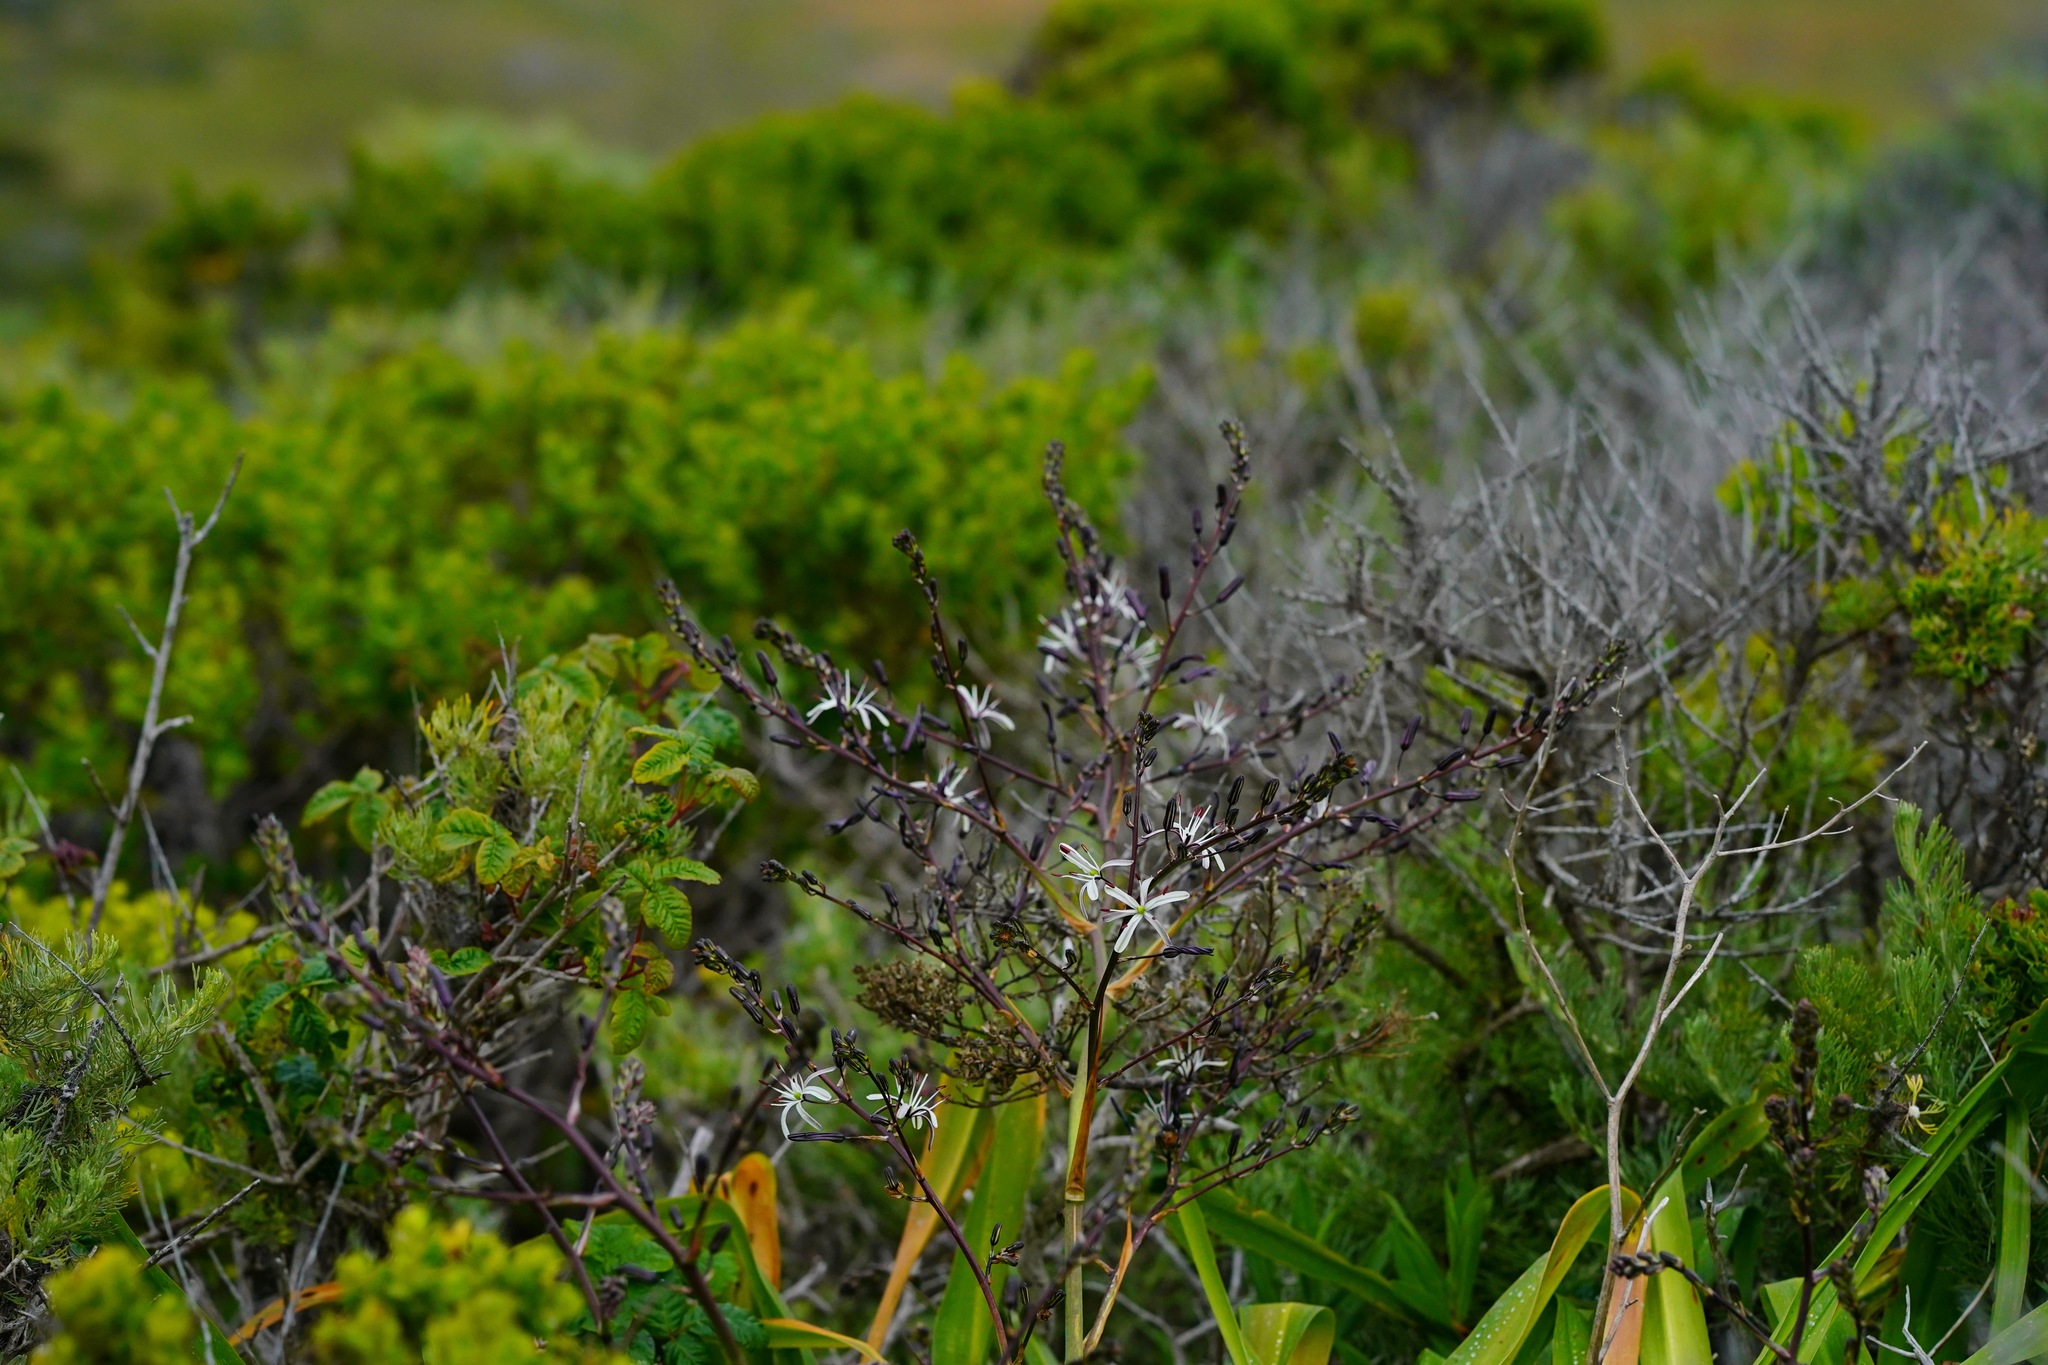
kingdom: Plantae
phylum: Tracheophyta
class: Liliopsida
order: Asparagales
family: Asparagaceae
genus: Chlorogalum
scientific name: Chlorogalum pomeridianum
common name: Amole
